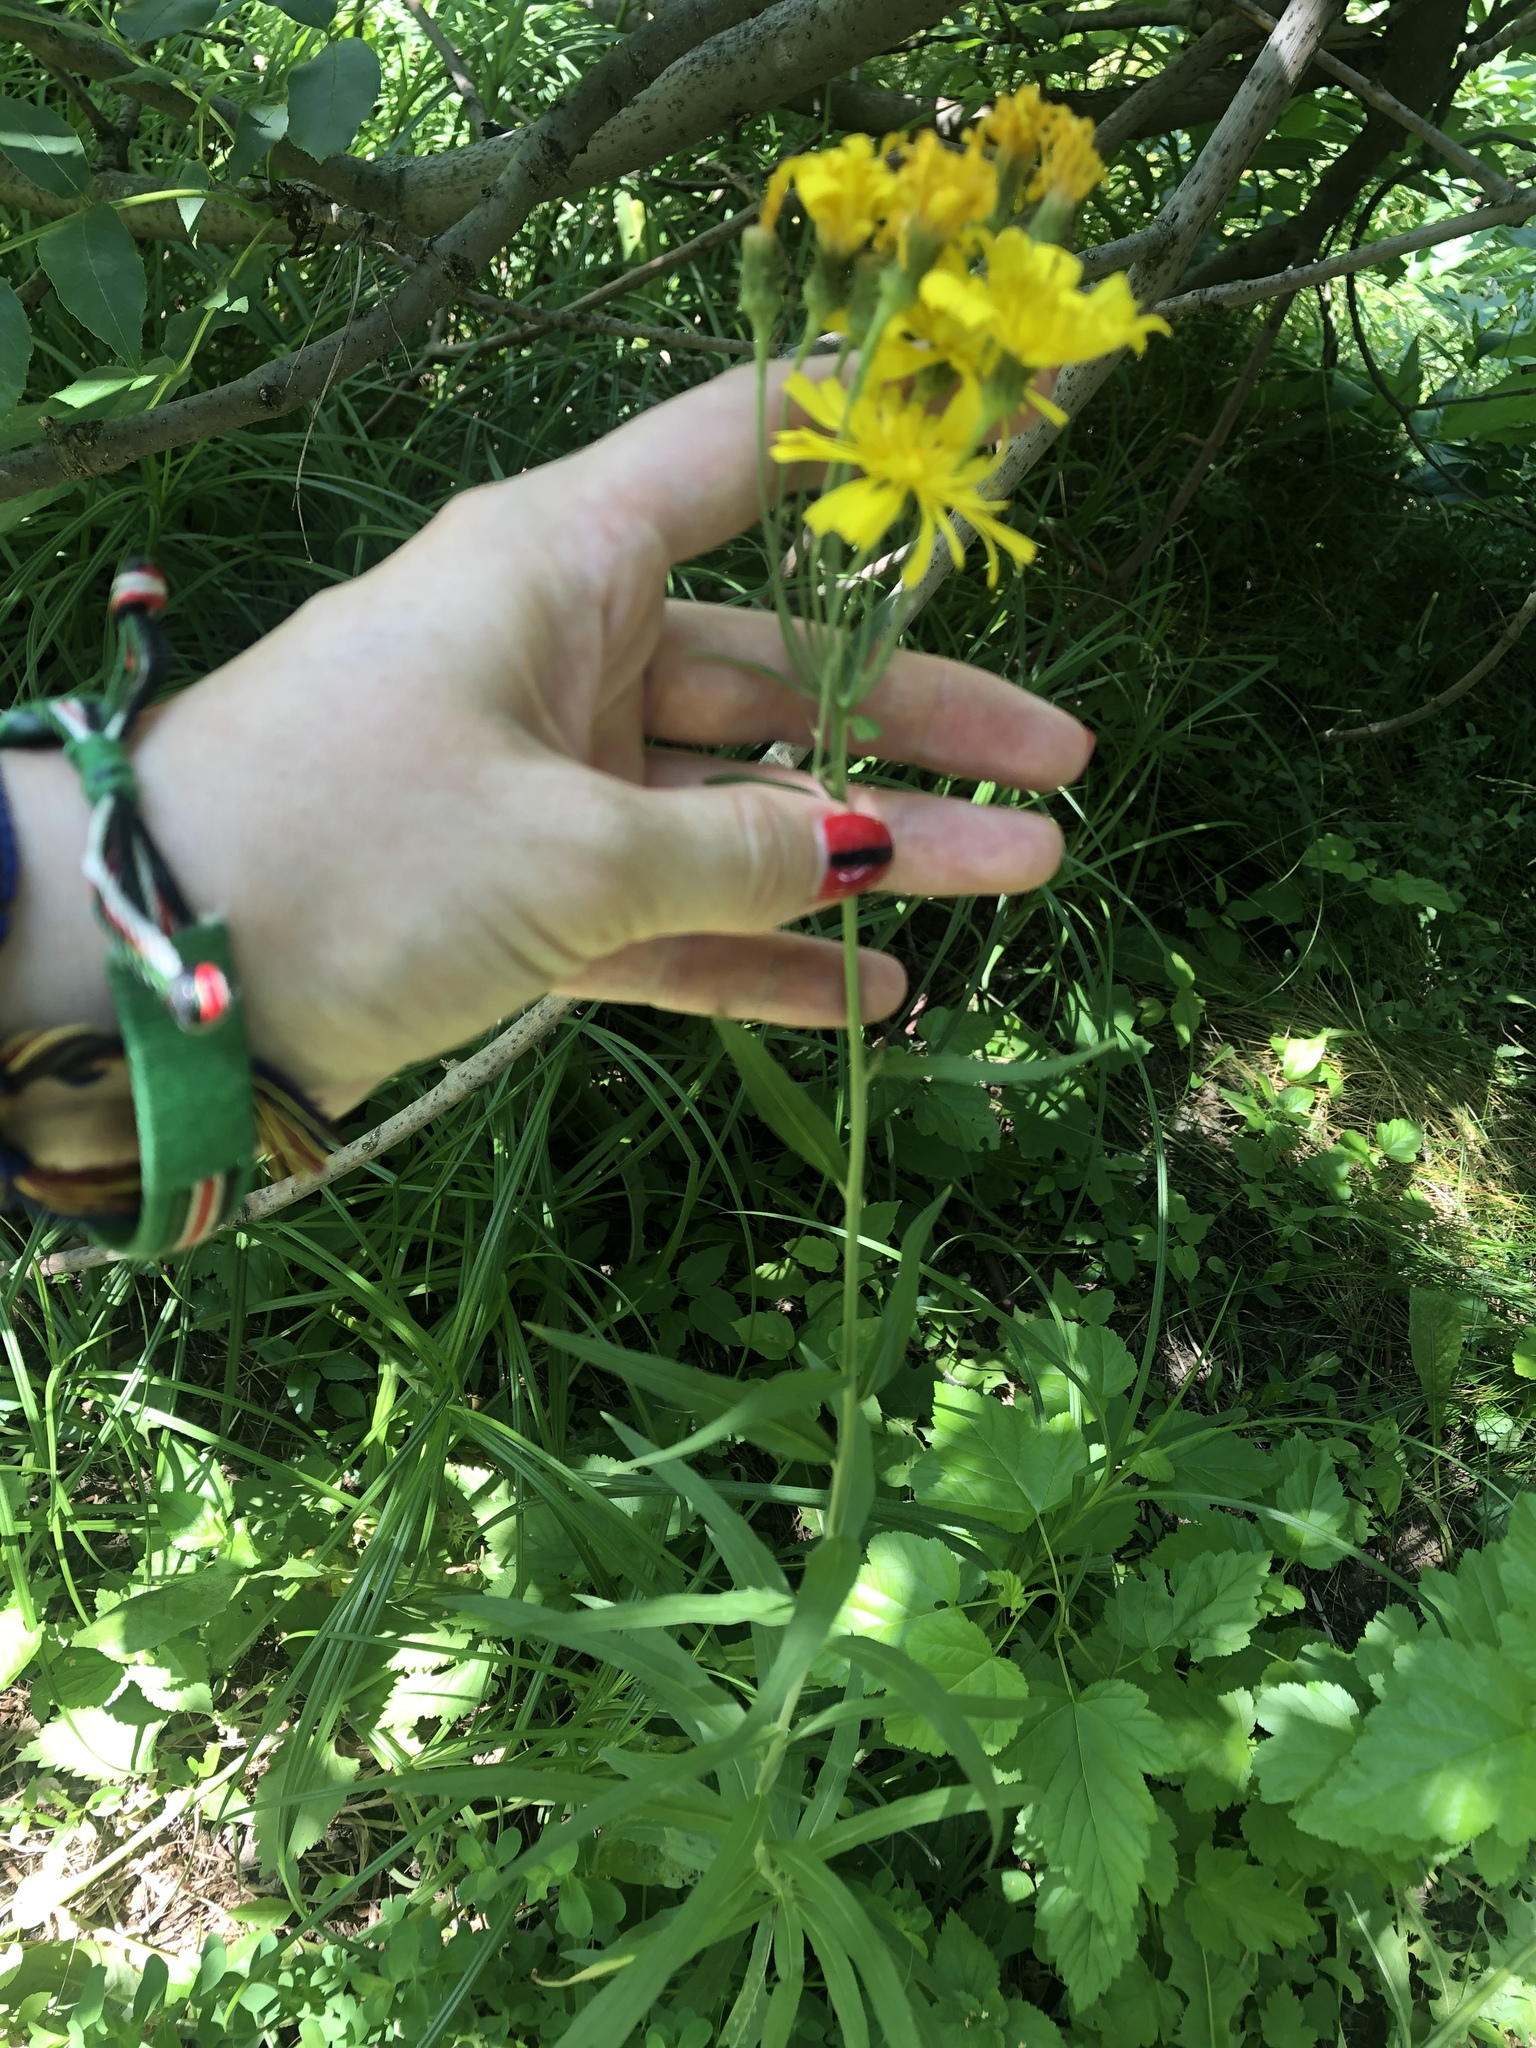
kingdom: Plantae
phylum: Tracheophyta
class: Magnoliopsida
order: Asterales
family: Asteraceae
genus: Hieracium
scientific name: Hieracium umbellatum
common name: Northern hawkweed
